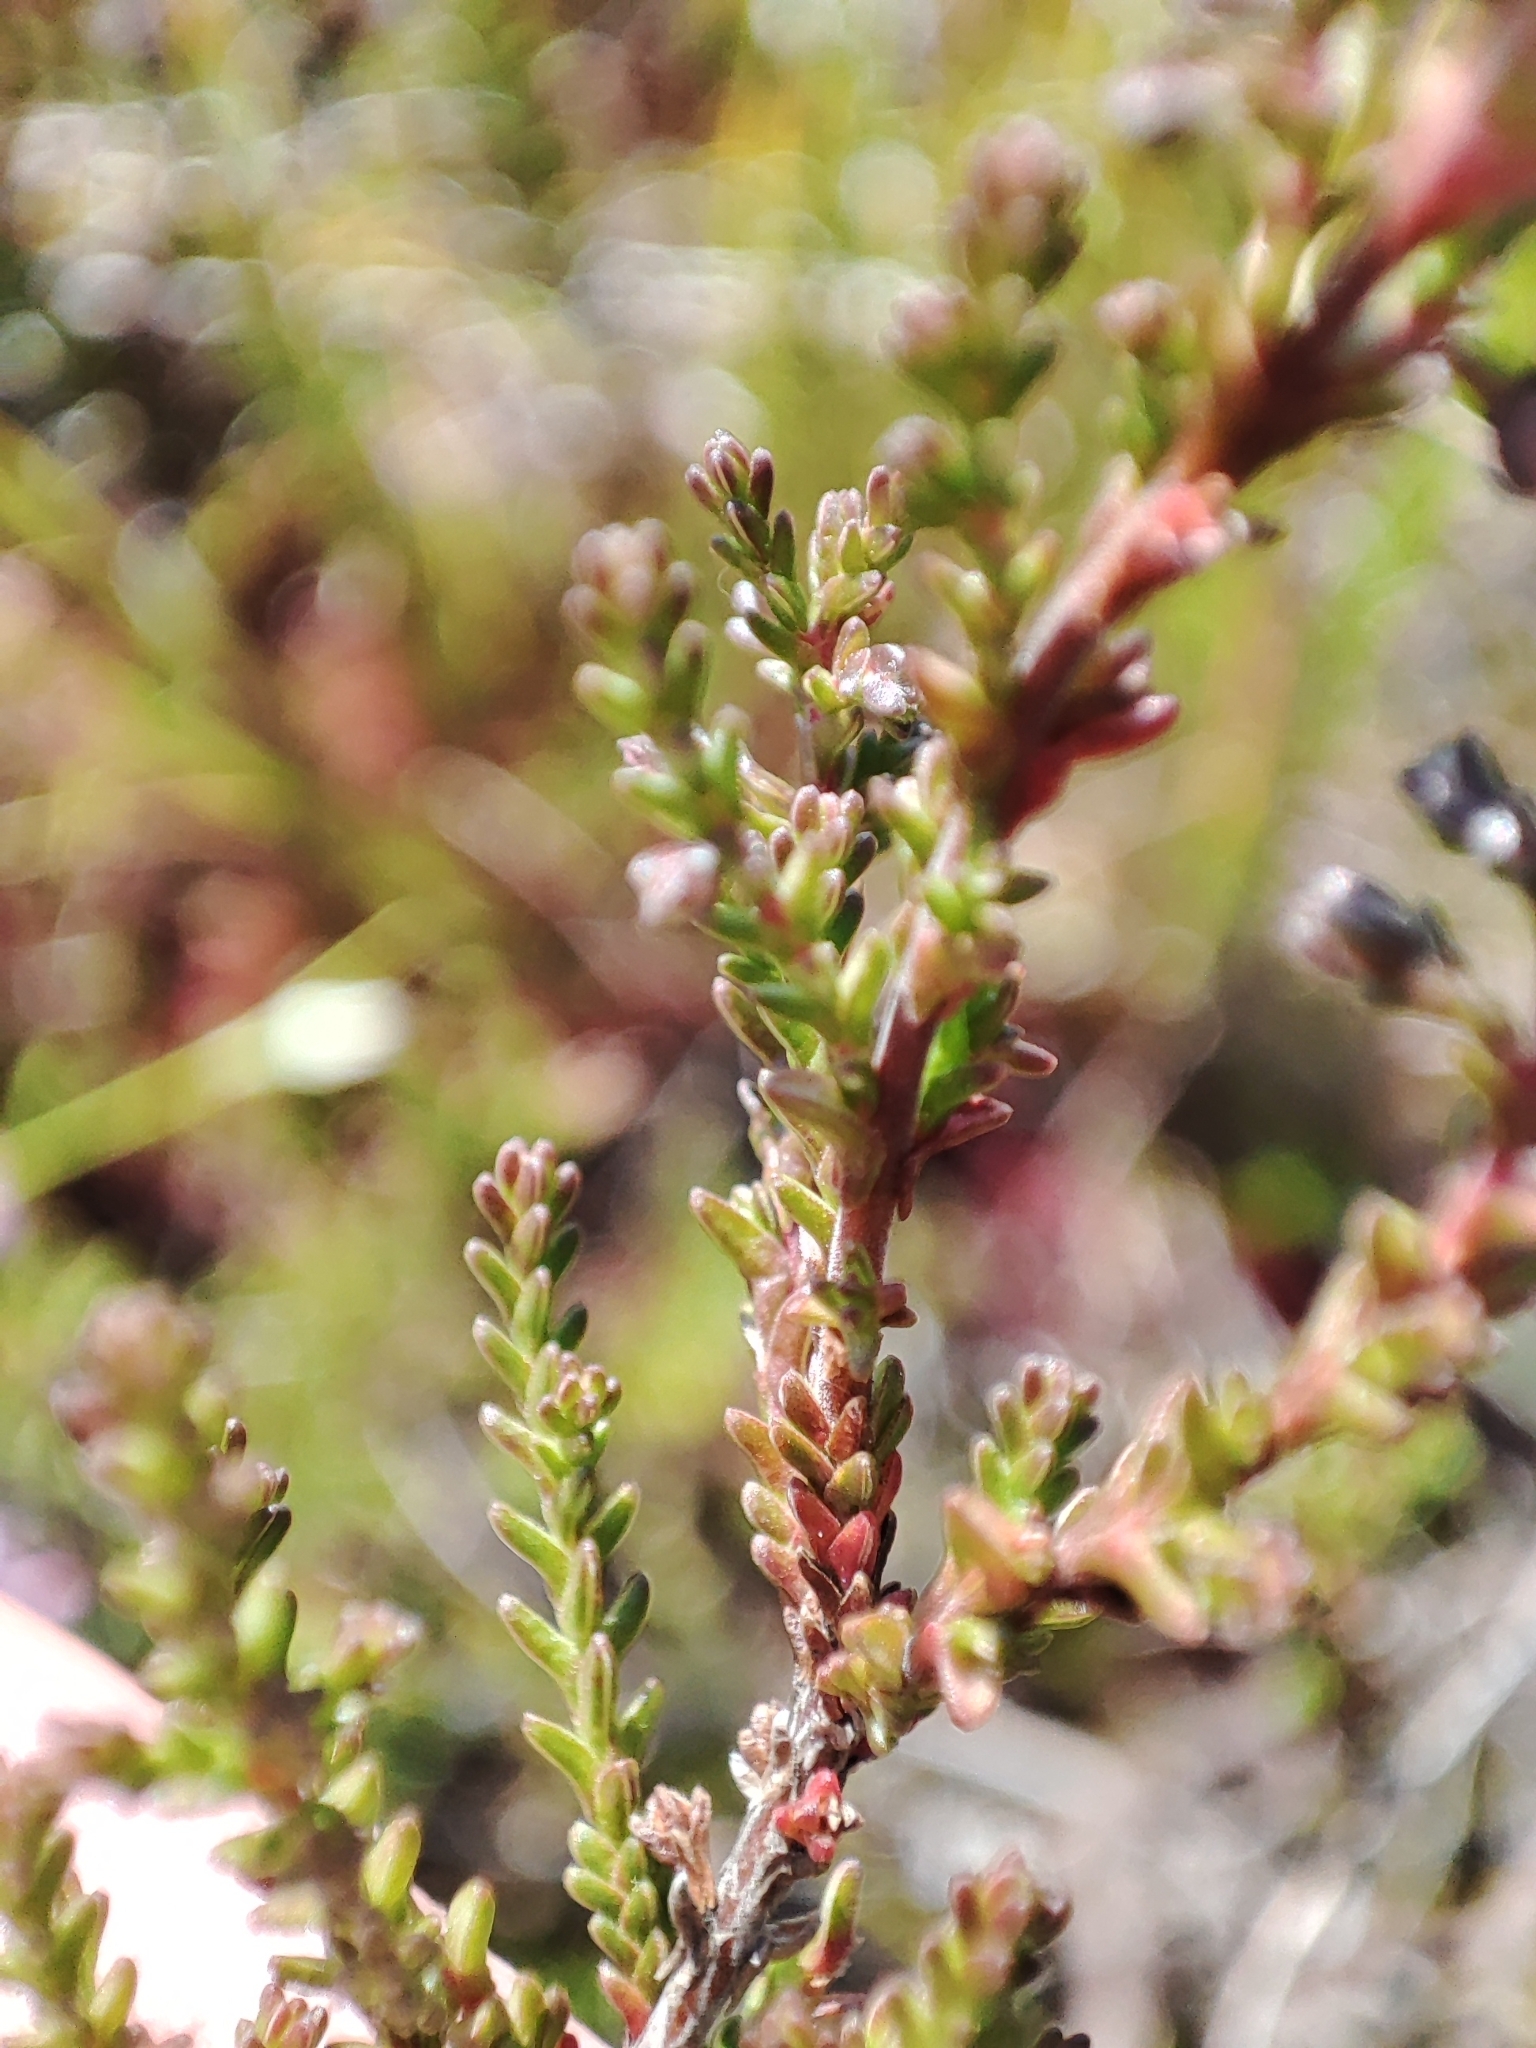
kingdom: Plantae
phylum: Tracheophyta
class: Magnoliopsida
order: Ericales
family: Ericaceae
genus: Calluna
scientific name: Calluna vulgaris
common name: Heather
